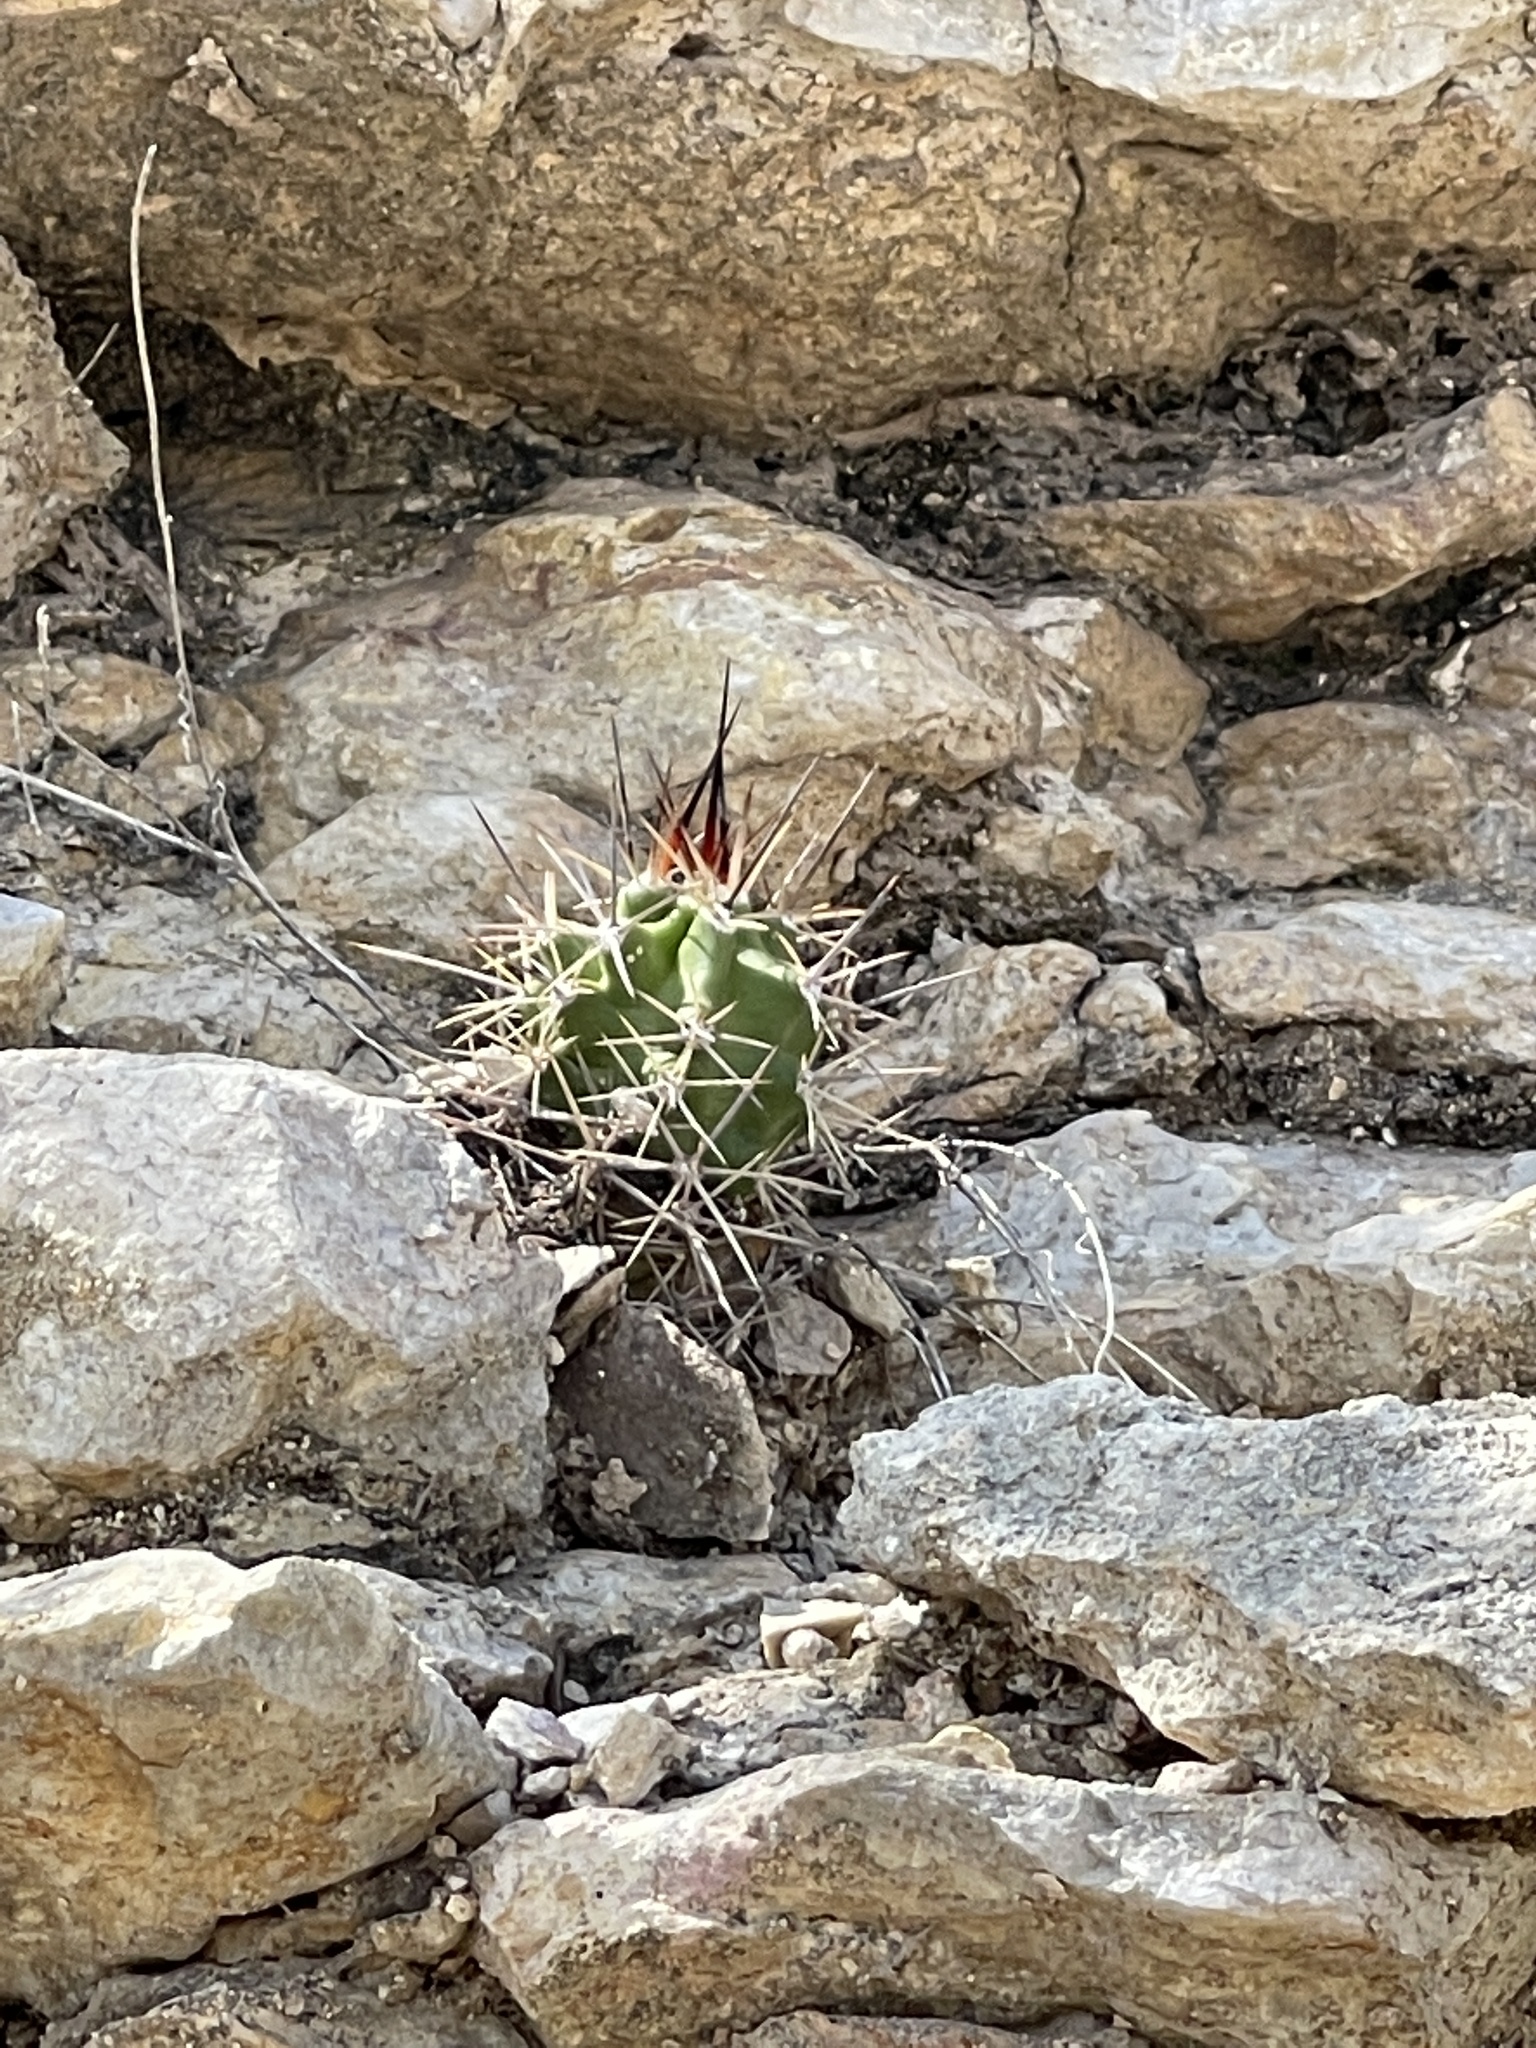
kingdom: Plantae
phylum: Tracheophyta
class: Magnoliopsida
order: Caryophyllales
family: Cactaceae
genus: Echinocereus
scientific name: Echinocereus coccineus
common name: Scarlet hedgehog cactus
